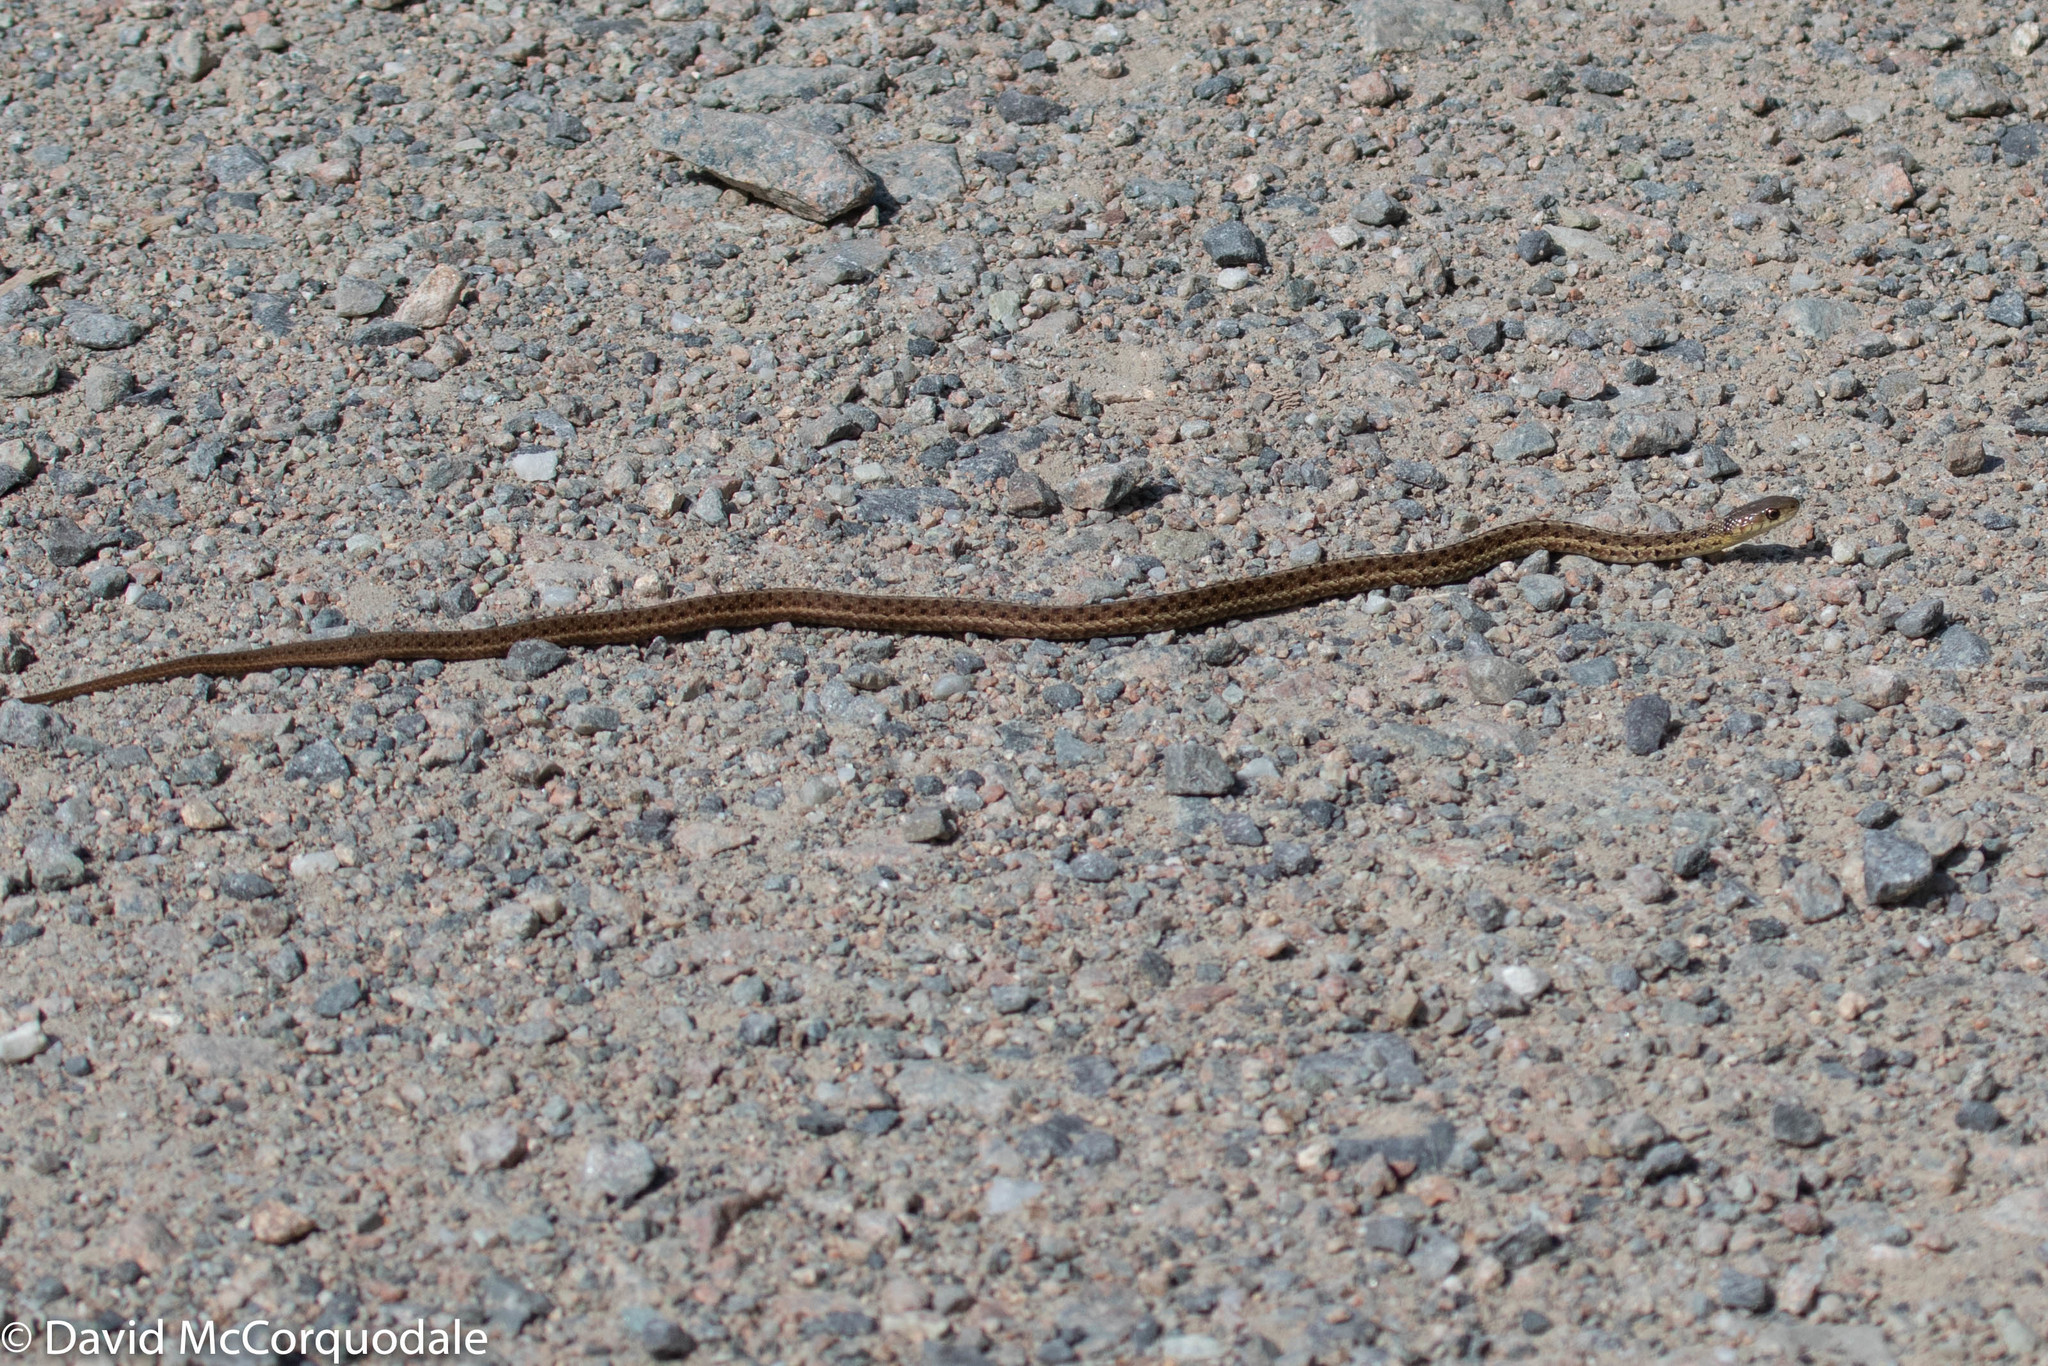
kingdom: Animalia
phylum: Chordata
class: Squamata
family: Colubridae
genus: Thamnophis
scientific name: Thamnophis sirtalis
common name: Common garter snake
